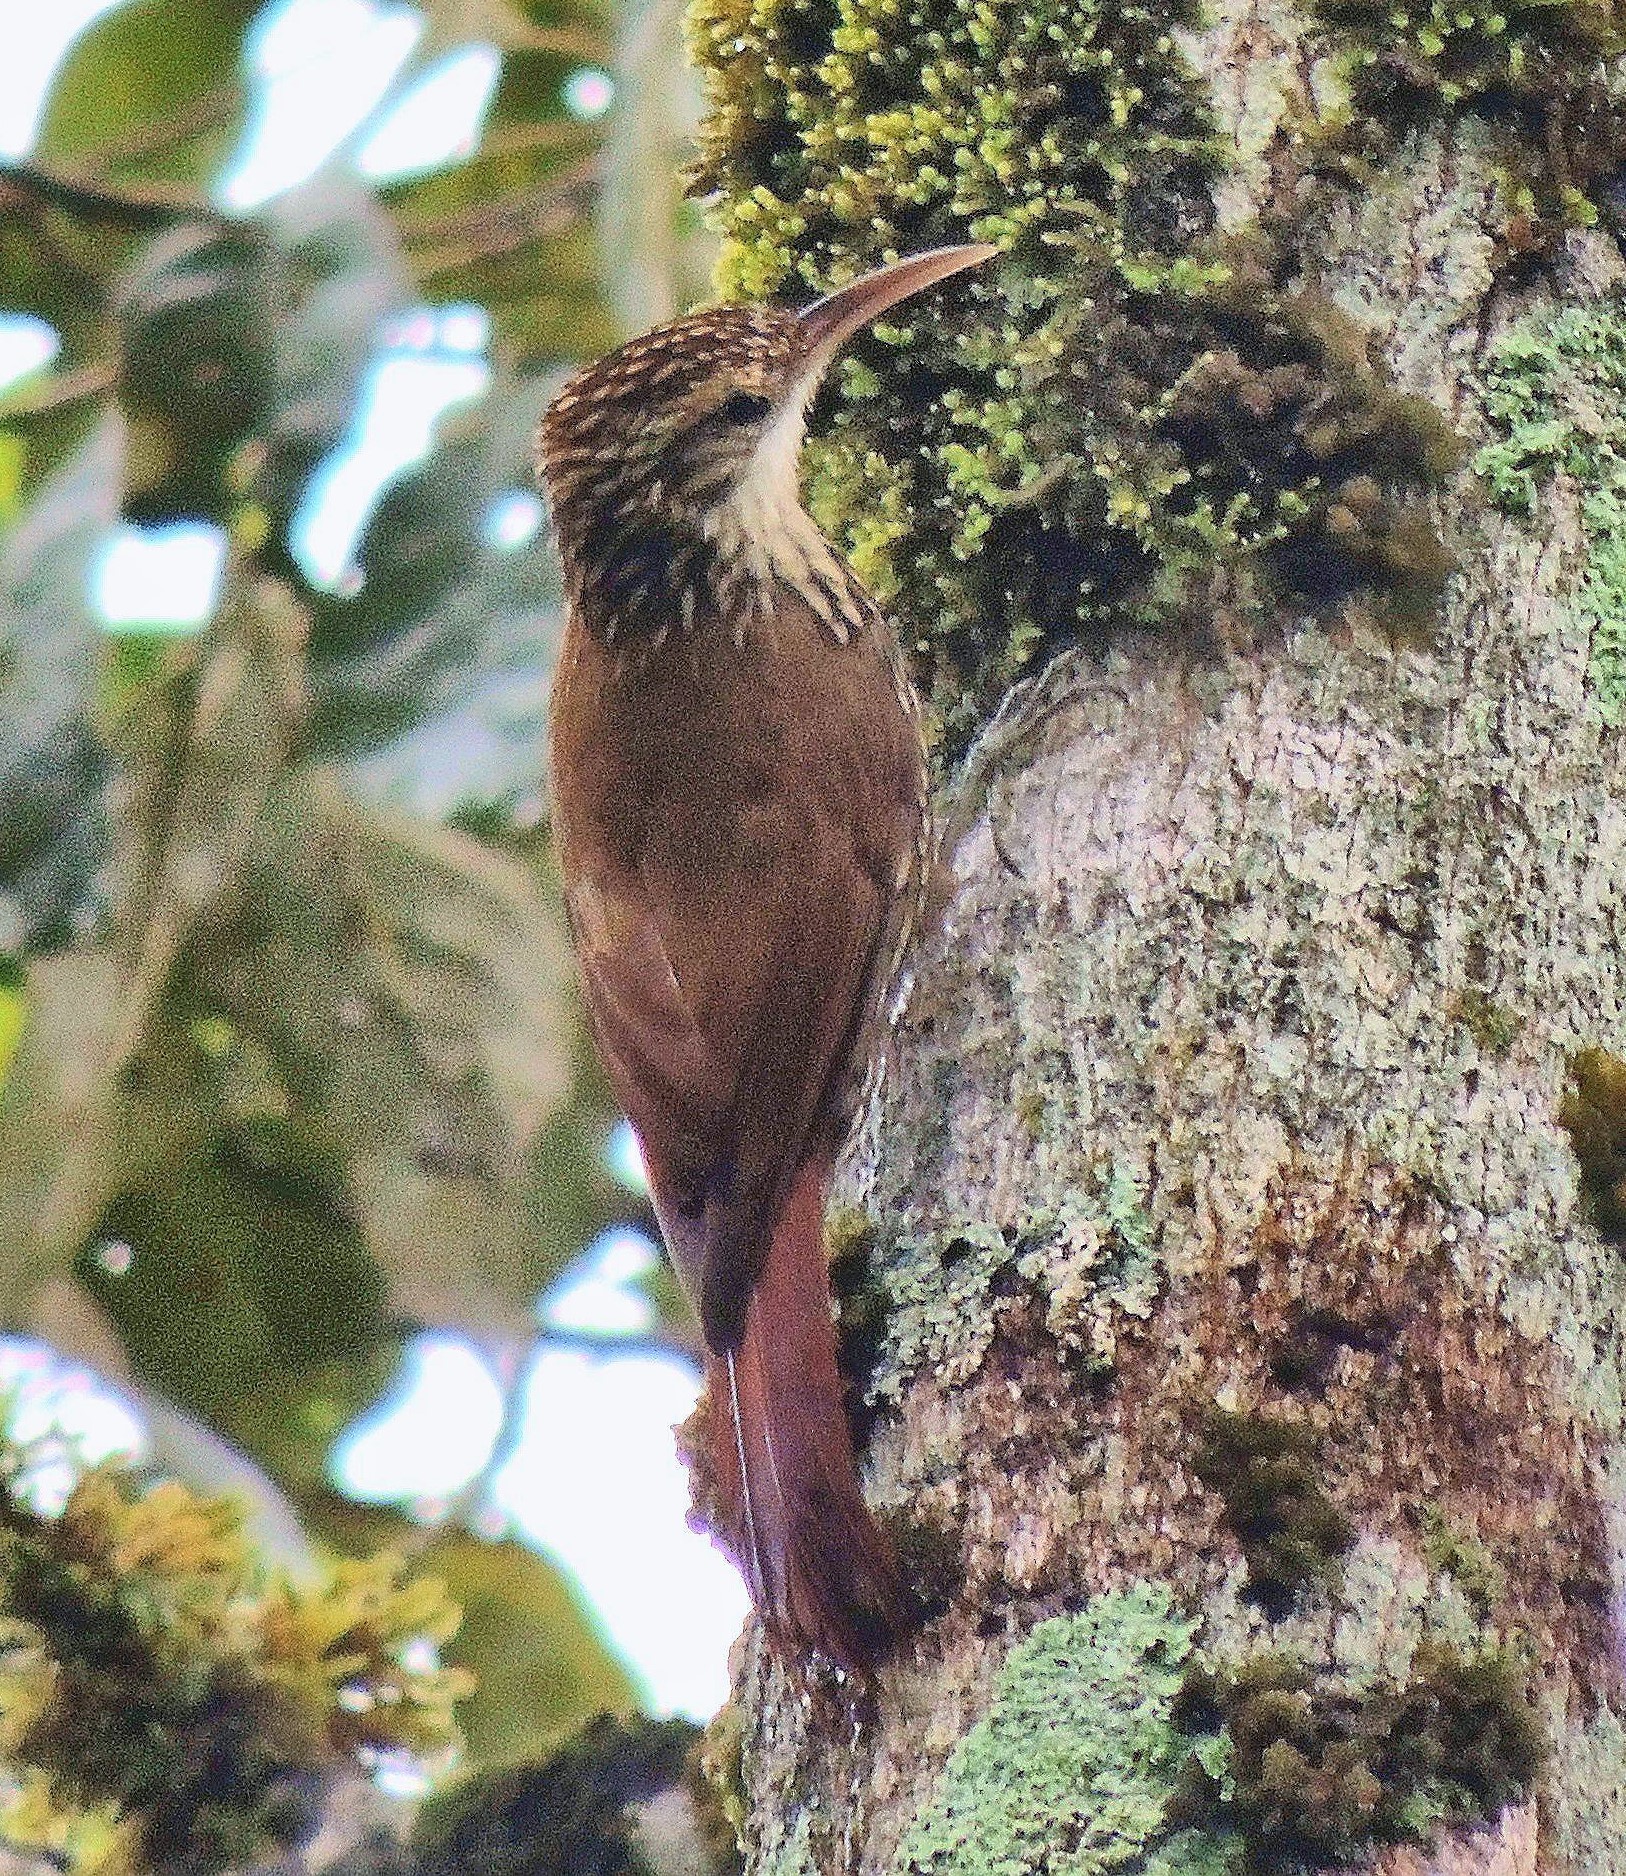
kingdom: Animalia
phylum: Chordata
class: Aves
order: Passeriformes
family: Furnariidae
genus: Lepidocolaptes
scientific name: Lepidocolaptes falcinellus
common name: Scalloped woodcreeper
